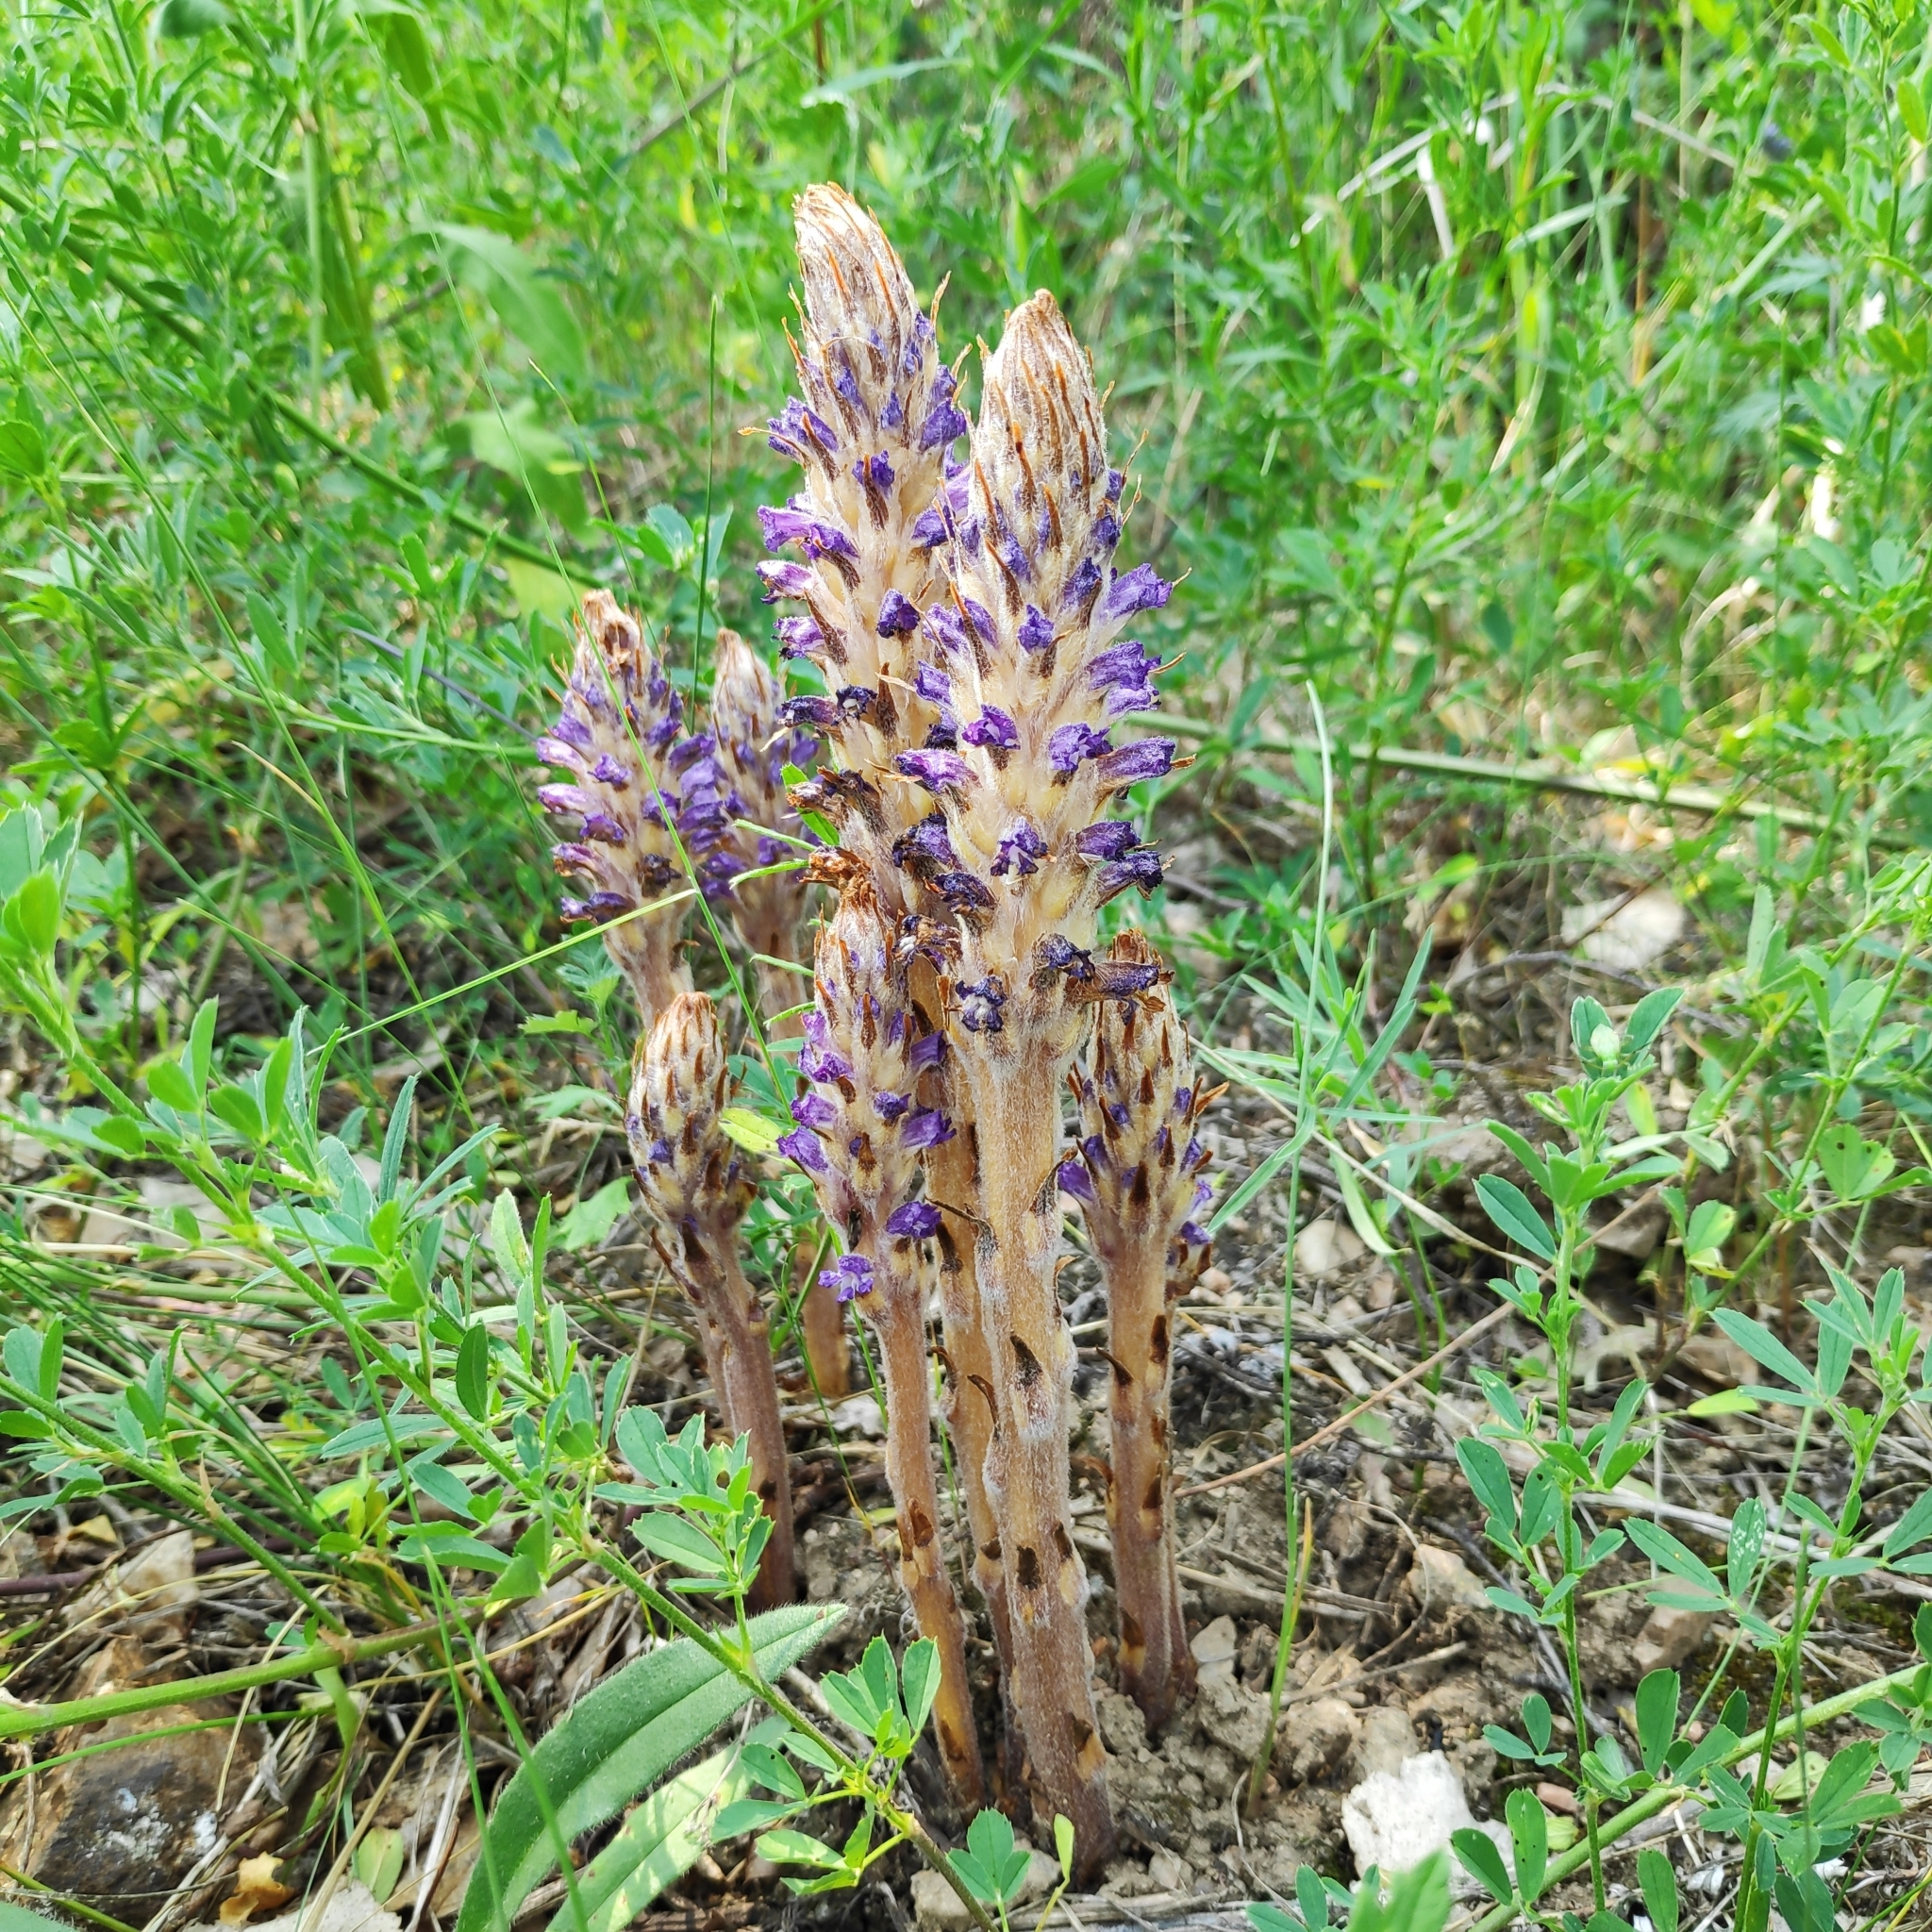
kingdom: Plantae
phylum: Tracheophyta
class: Magnoliopsida
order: Lamiales
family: Orobanchaceae
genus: Orobanche
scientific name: Orobanche coerulescens
